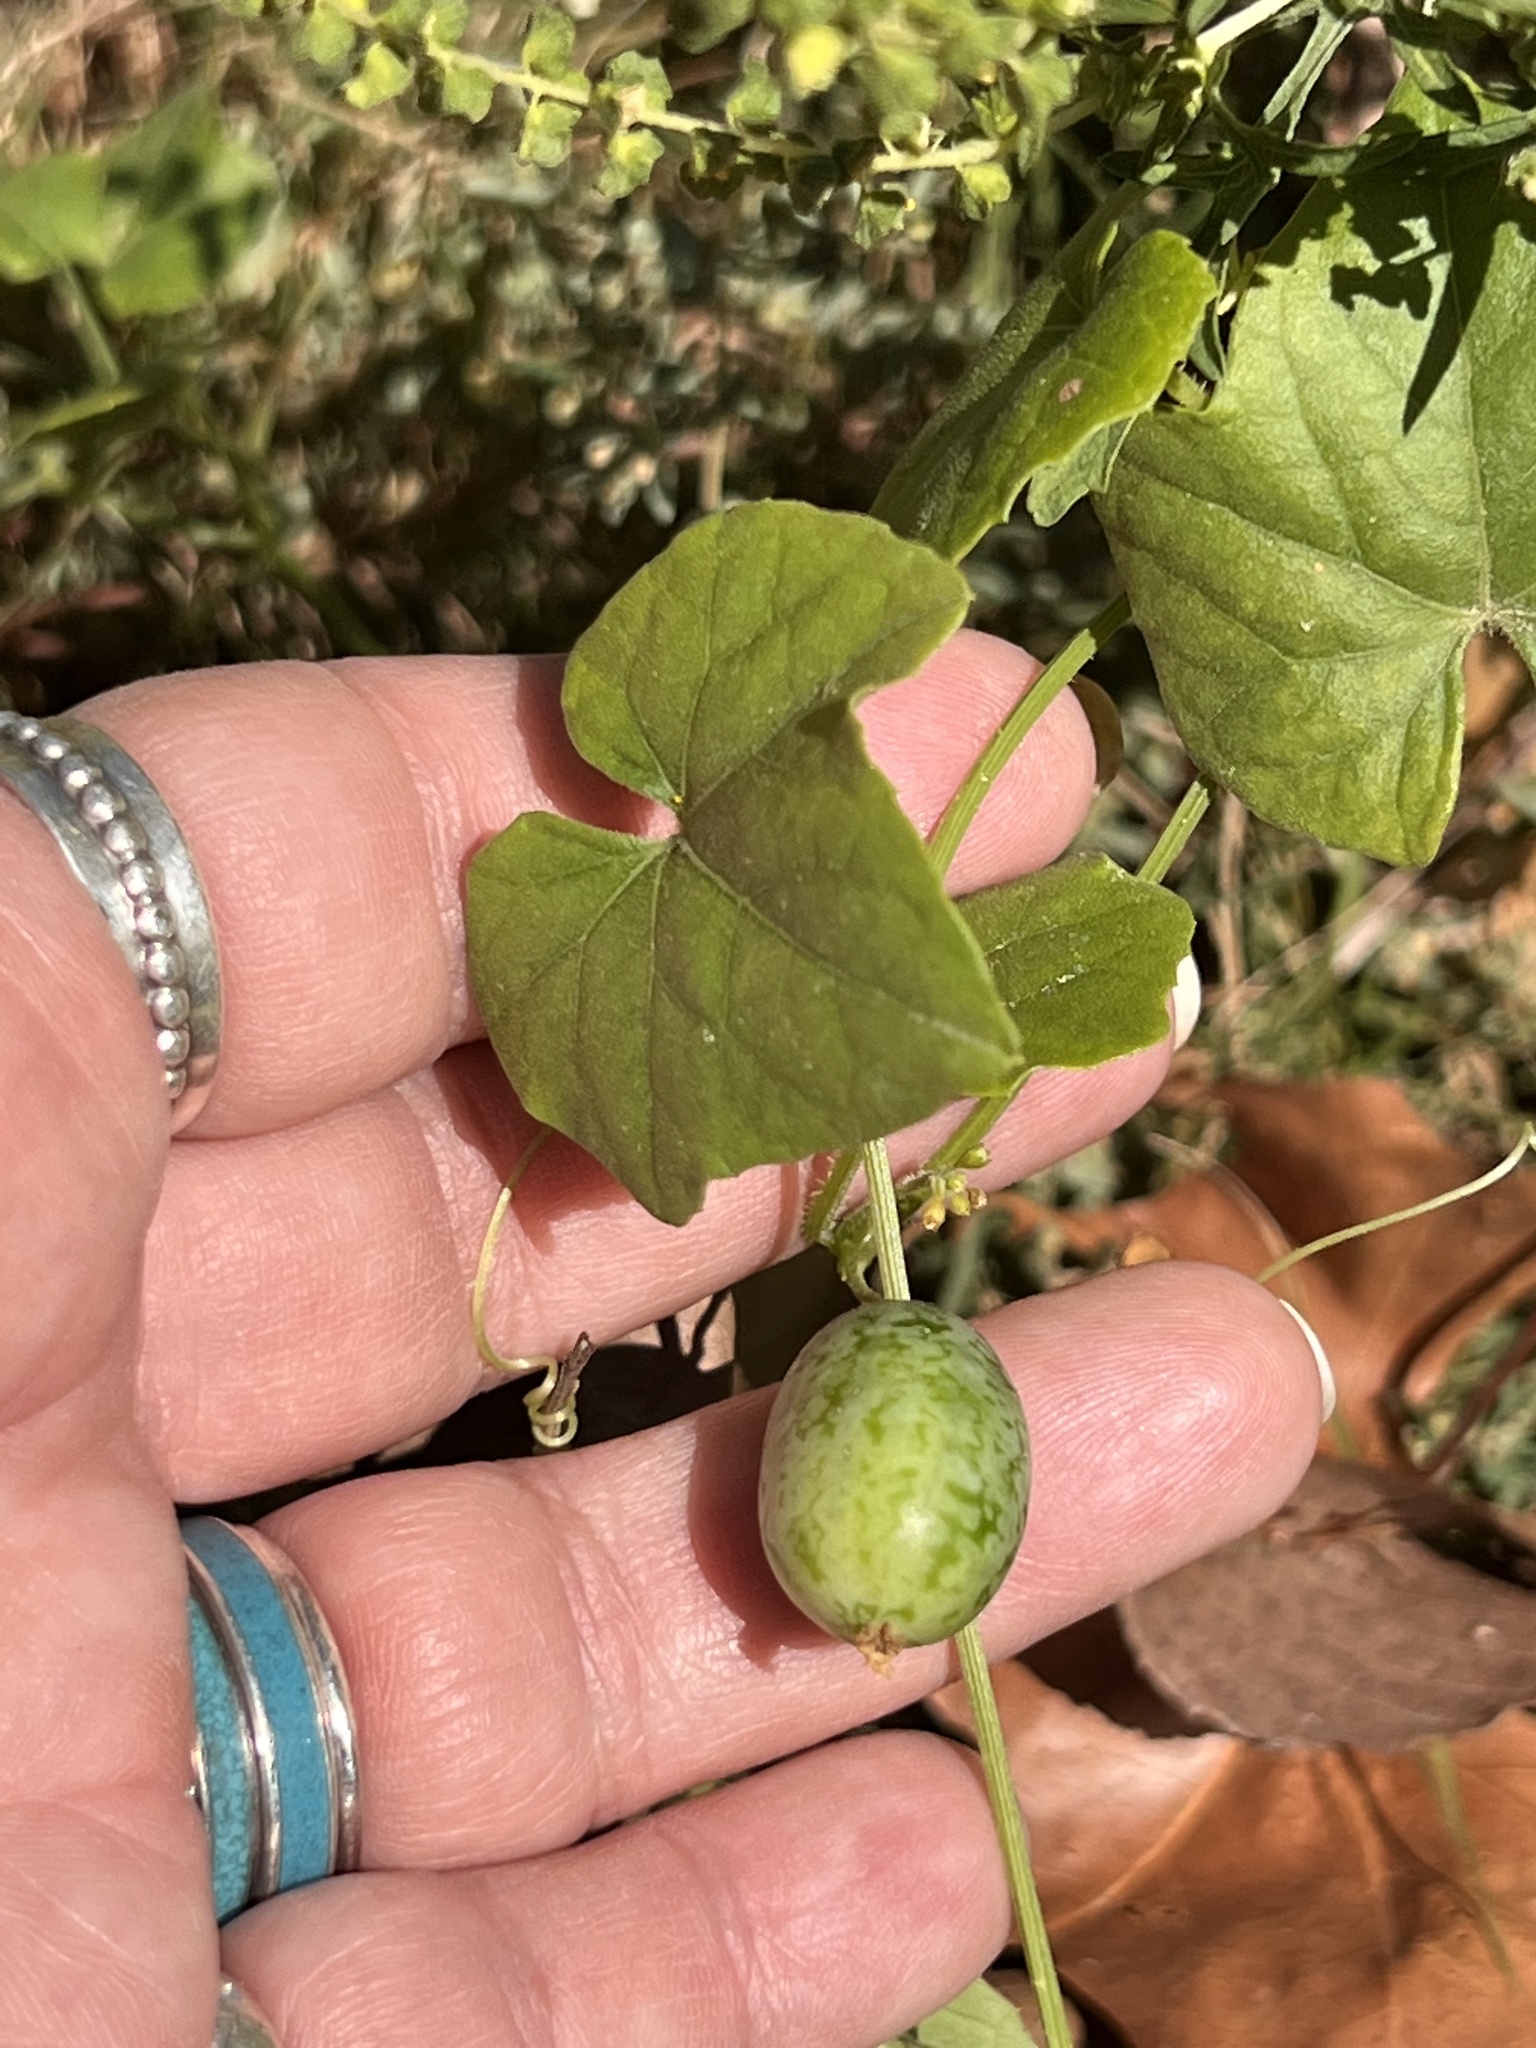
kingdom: Plantae
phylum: Tracheophyta
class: Magnoliopsida
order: Cucurbitales
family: Cucurbitaceae
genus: Melothria
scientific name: Melothria pendula
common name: Creeping-cucumber
